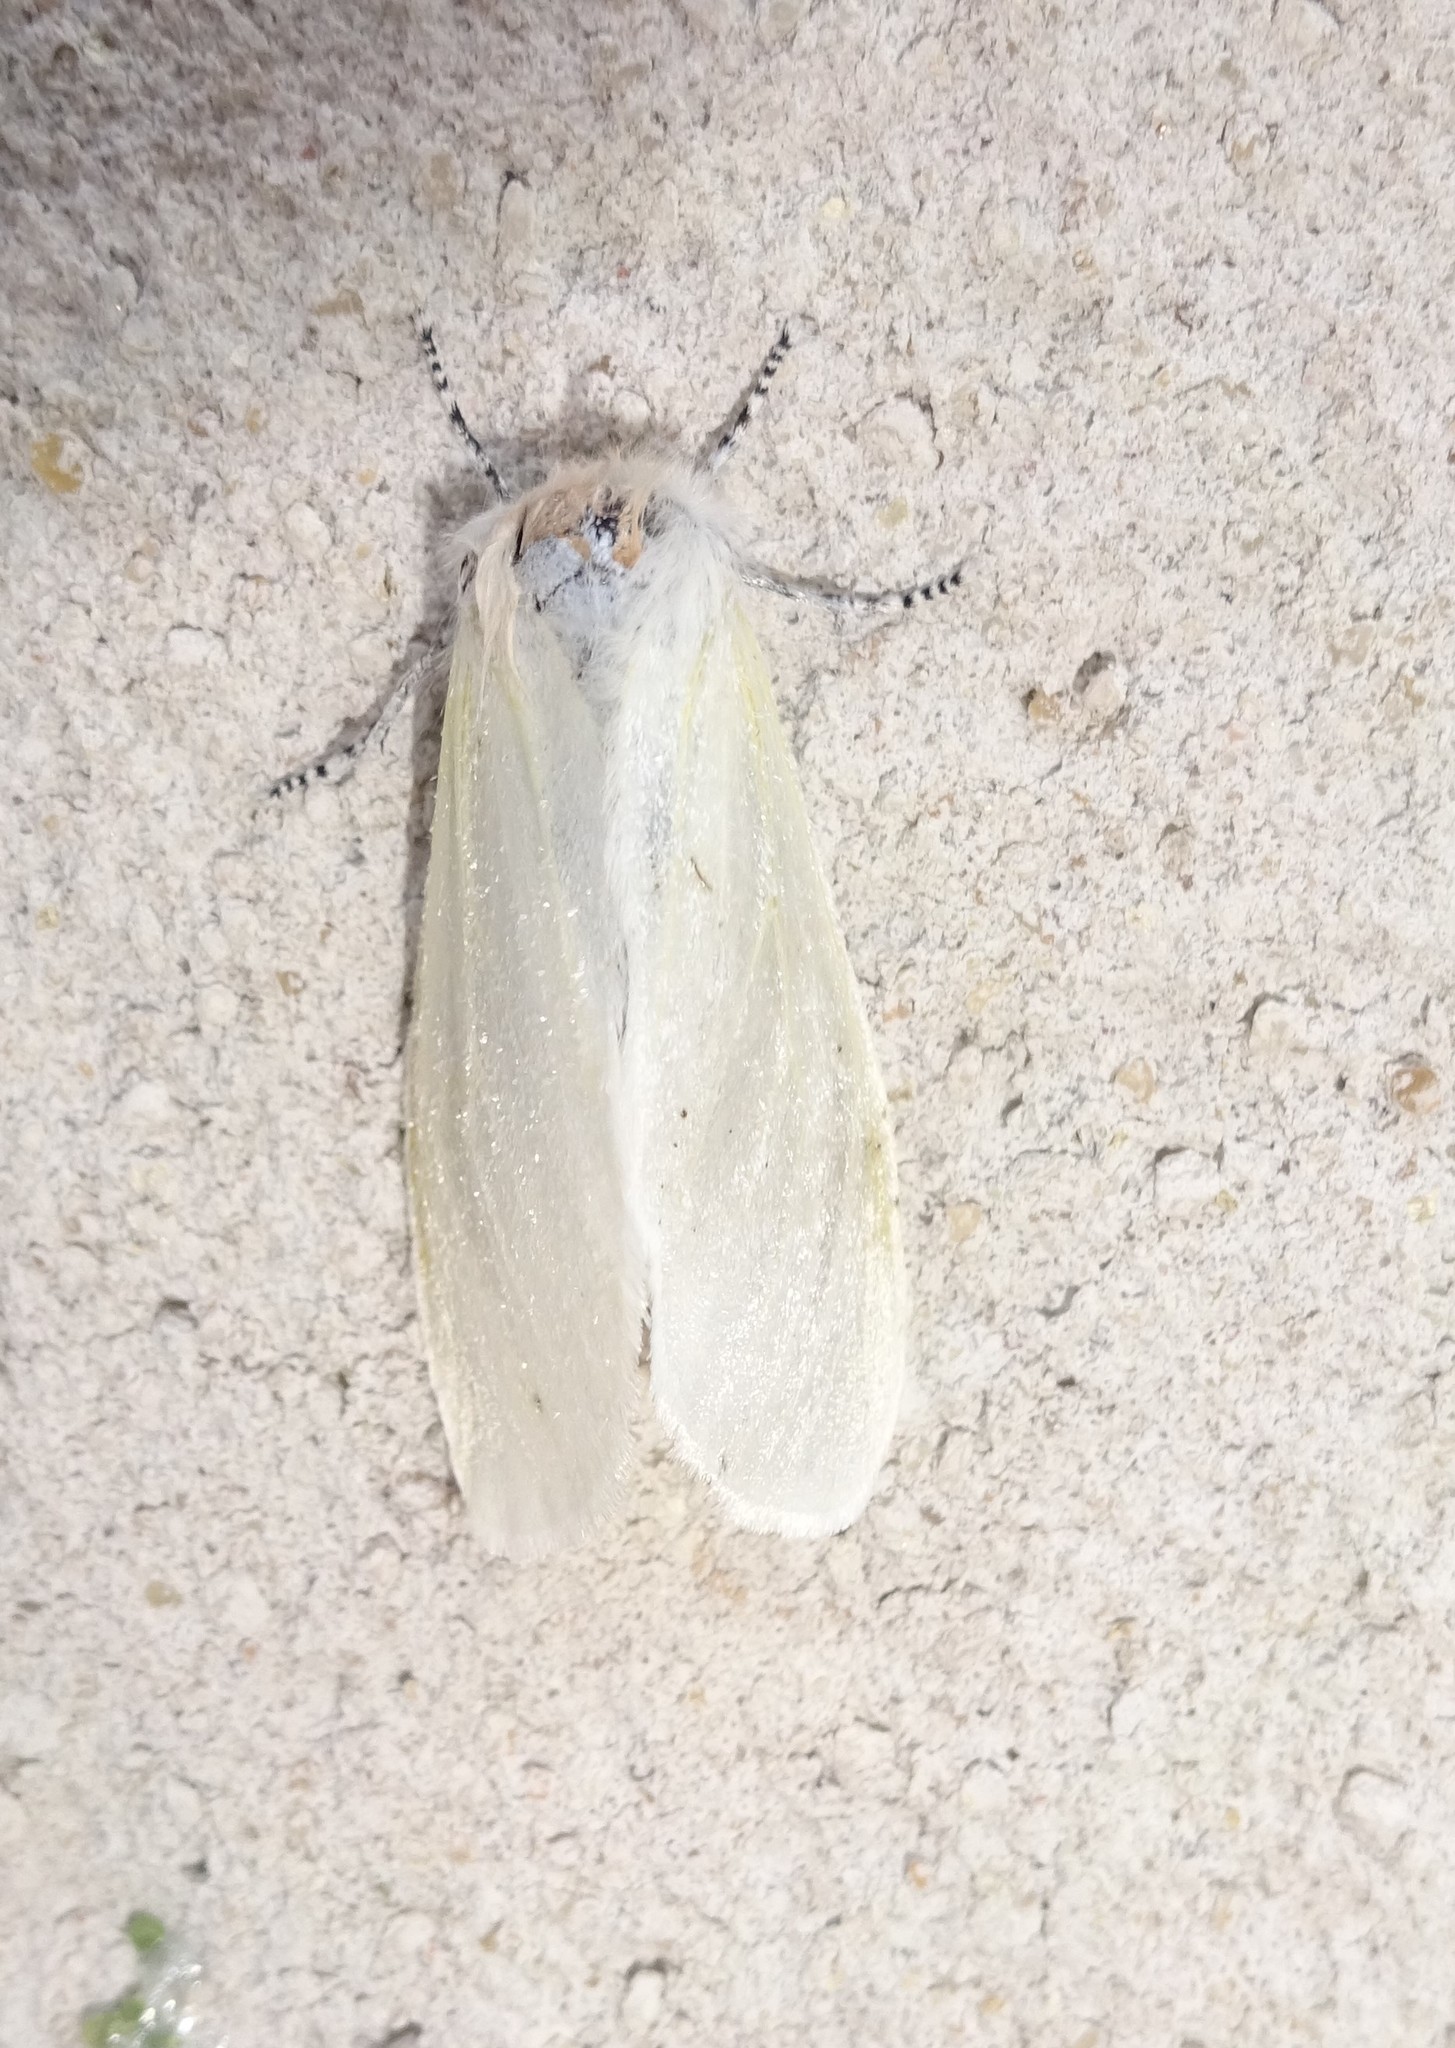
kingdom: Animalia
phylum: Arthropoda
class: Insecta
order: Lepidoptera
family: Erebidae
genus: Leucoma
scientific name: Leucoma salicis
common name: White satin moth
